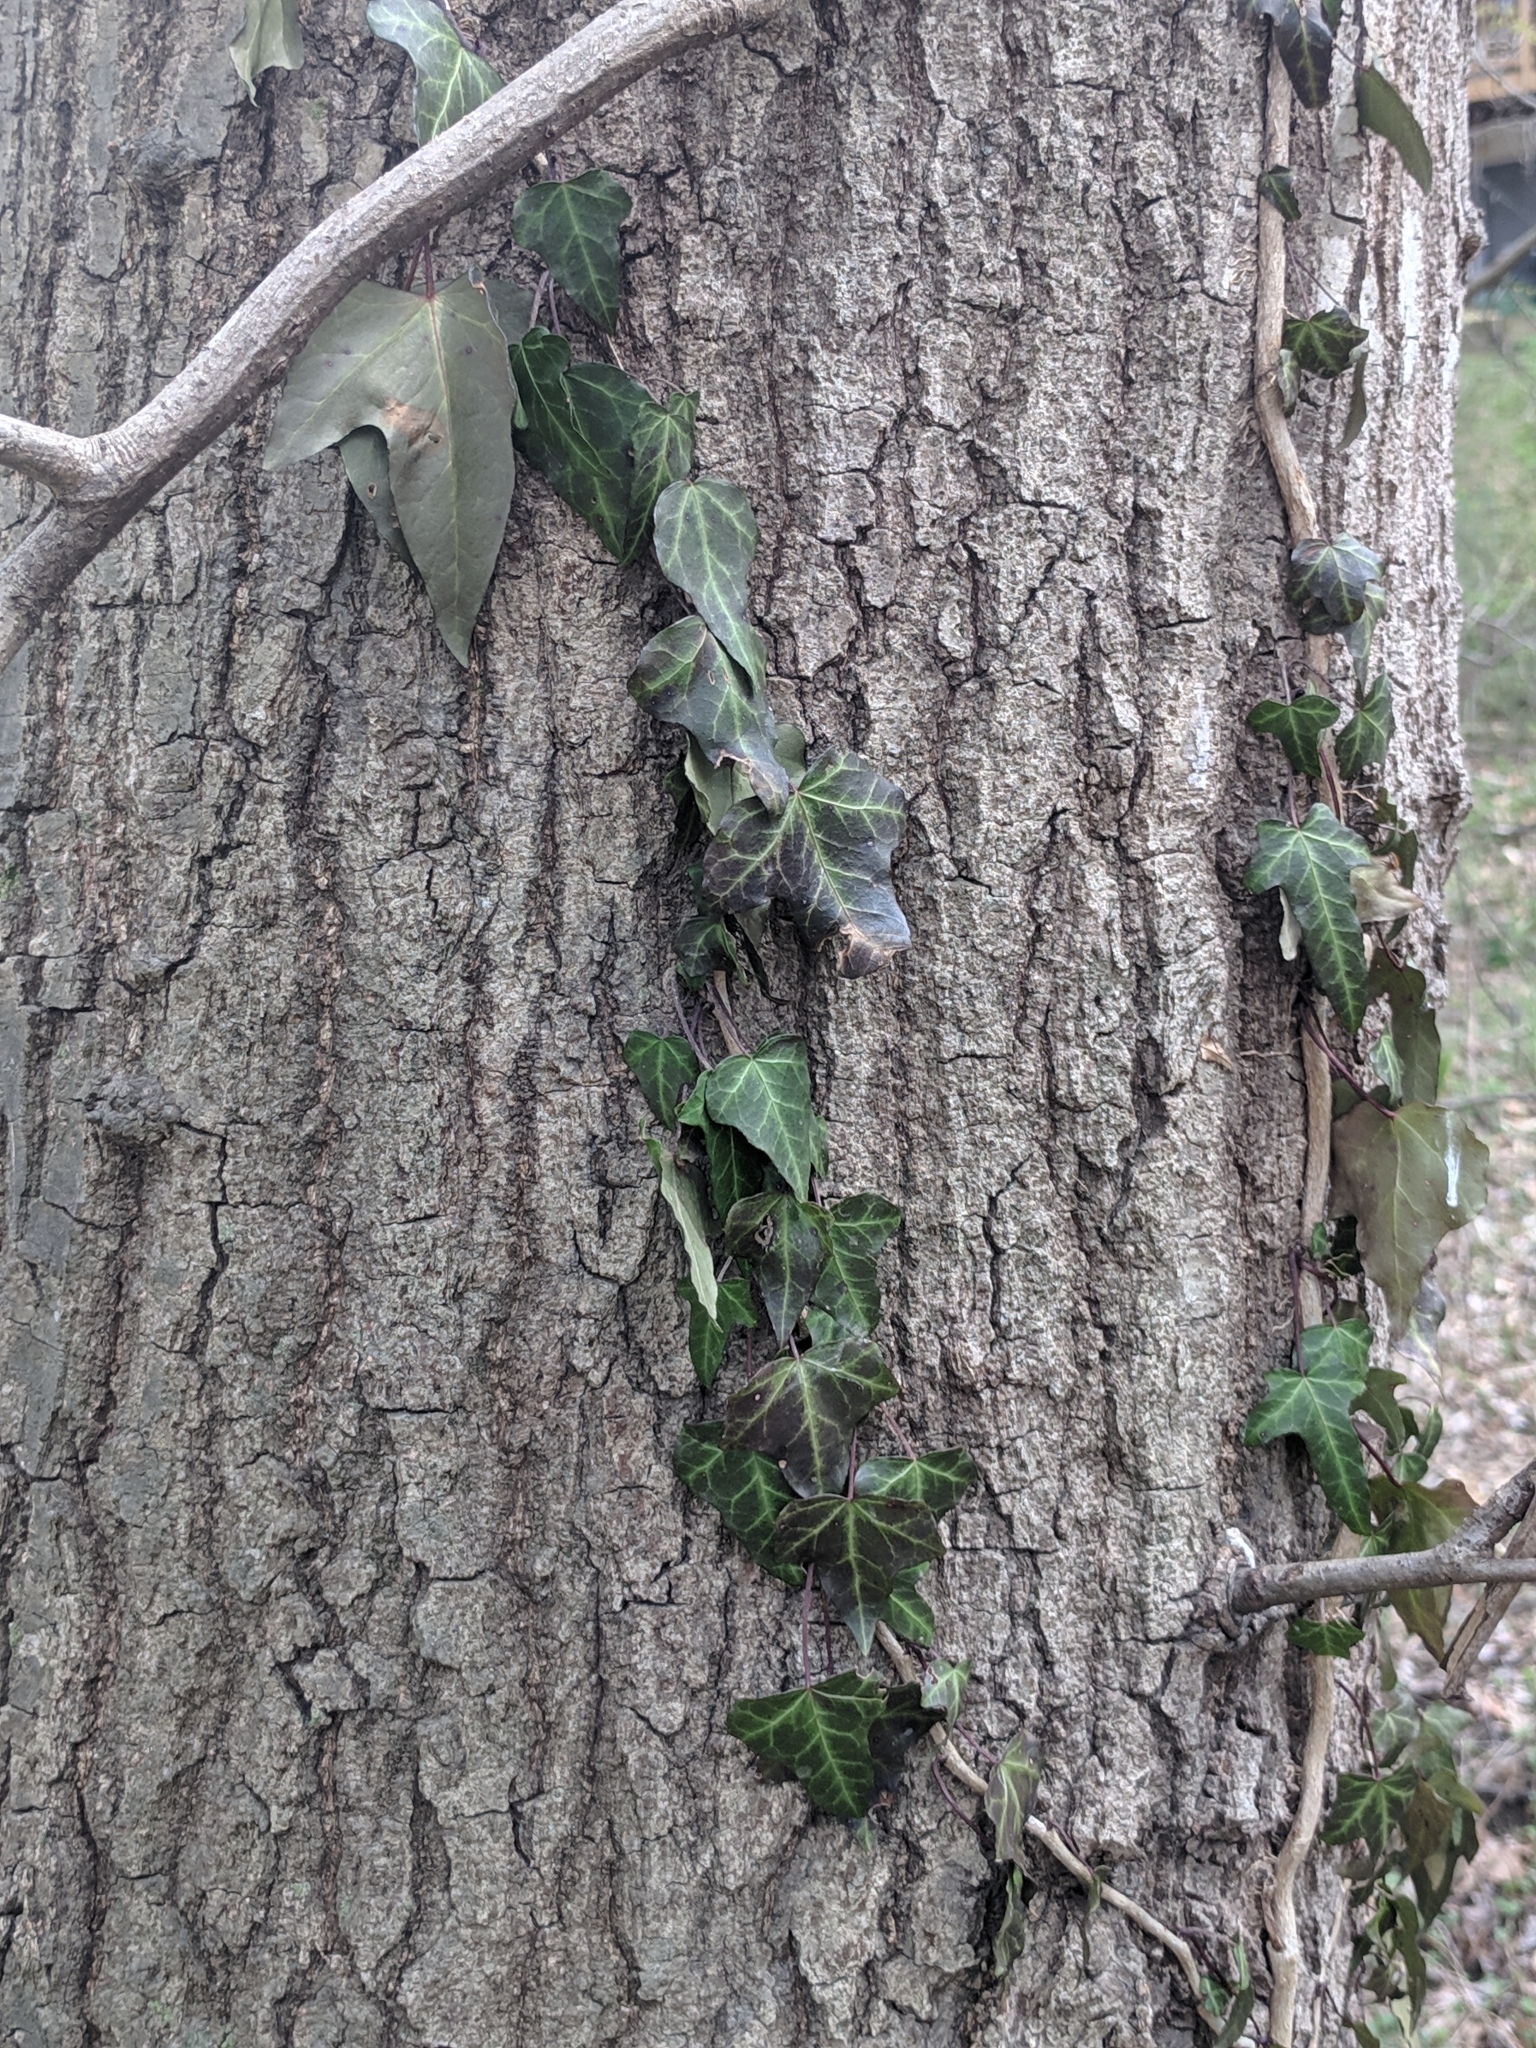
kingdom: Plantae
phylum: Tracheophyta
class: Magnoliopsida
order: Apiales
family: Araliaceae
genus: Hedera
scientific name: Hedera helix
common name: Ivy
